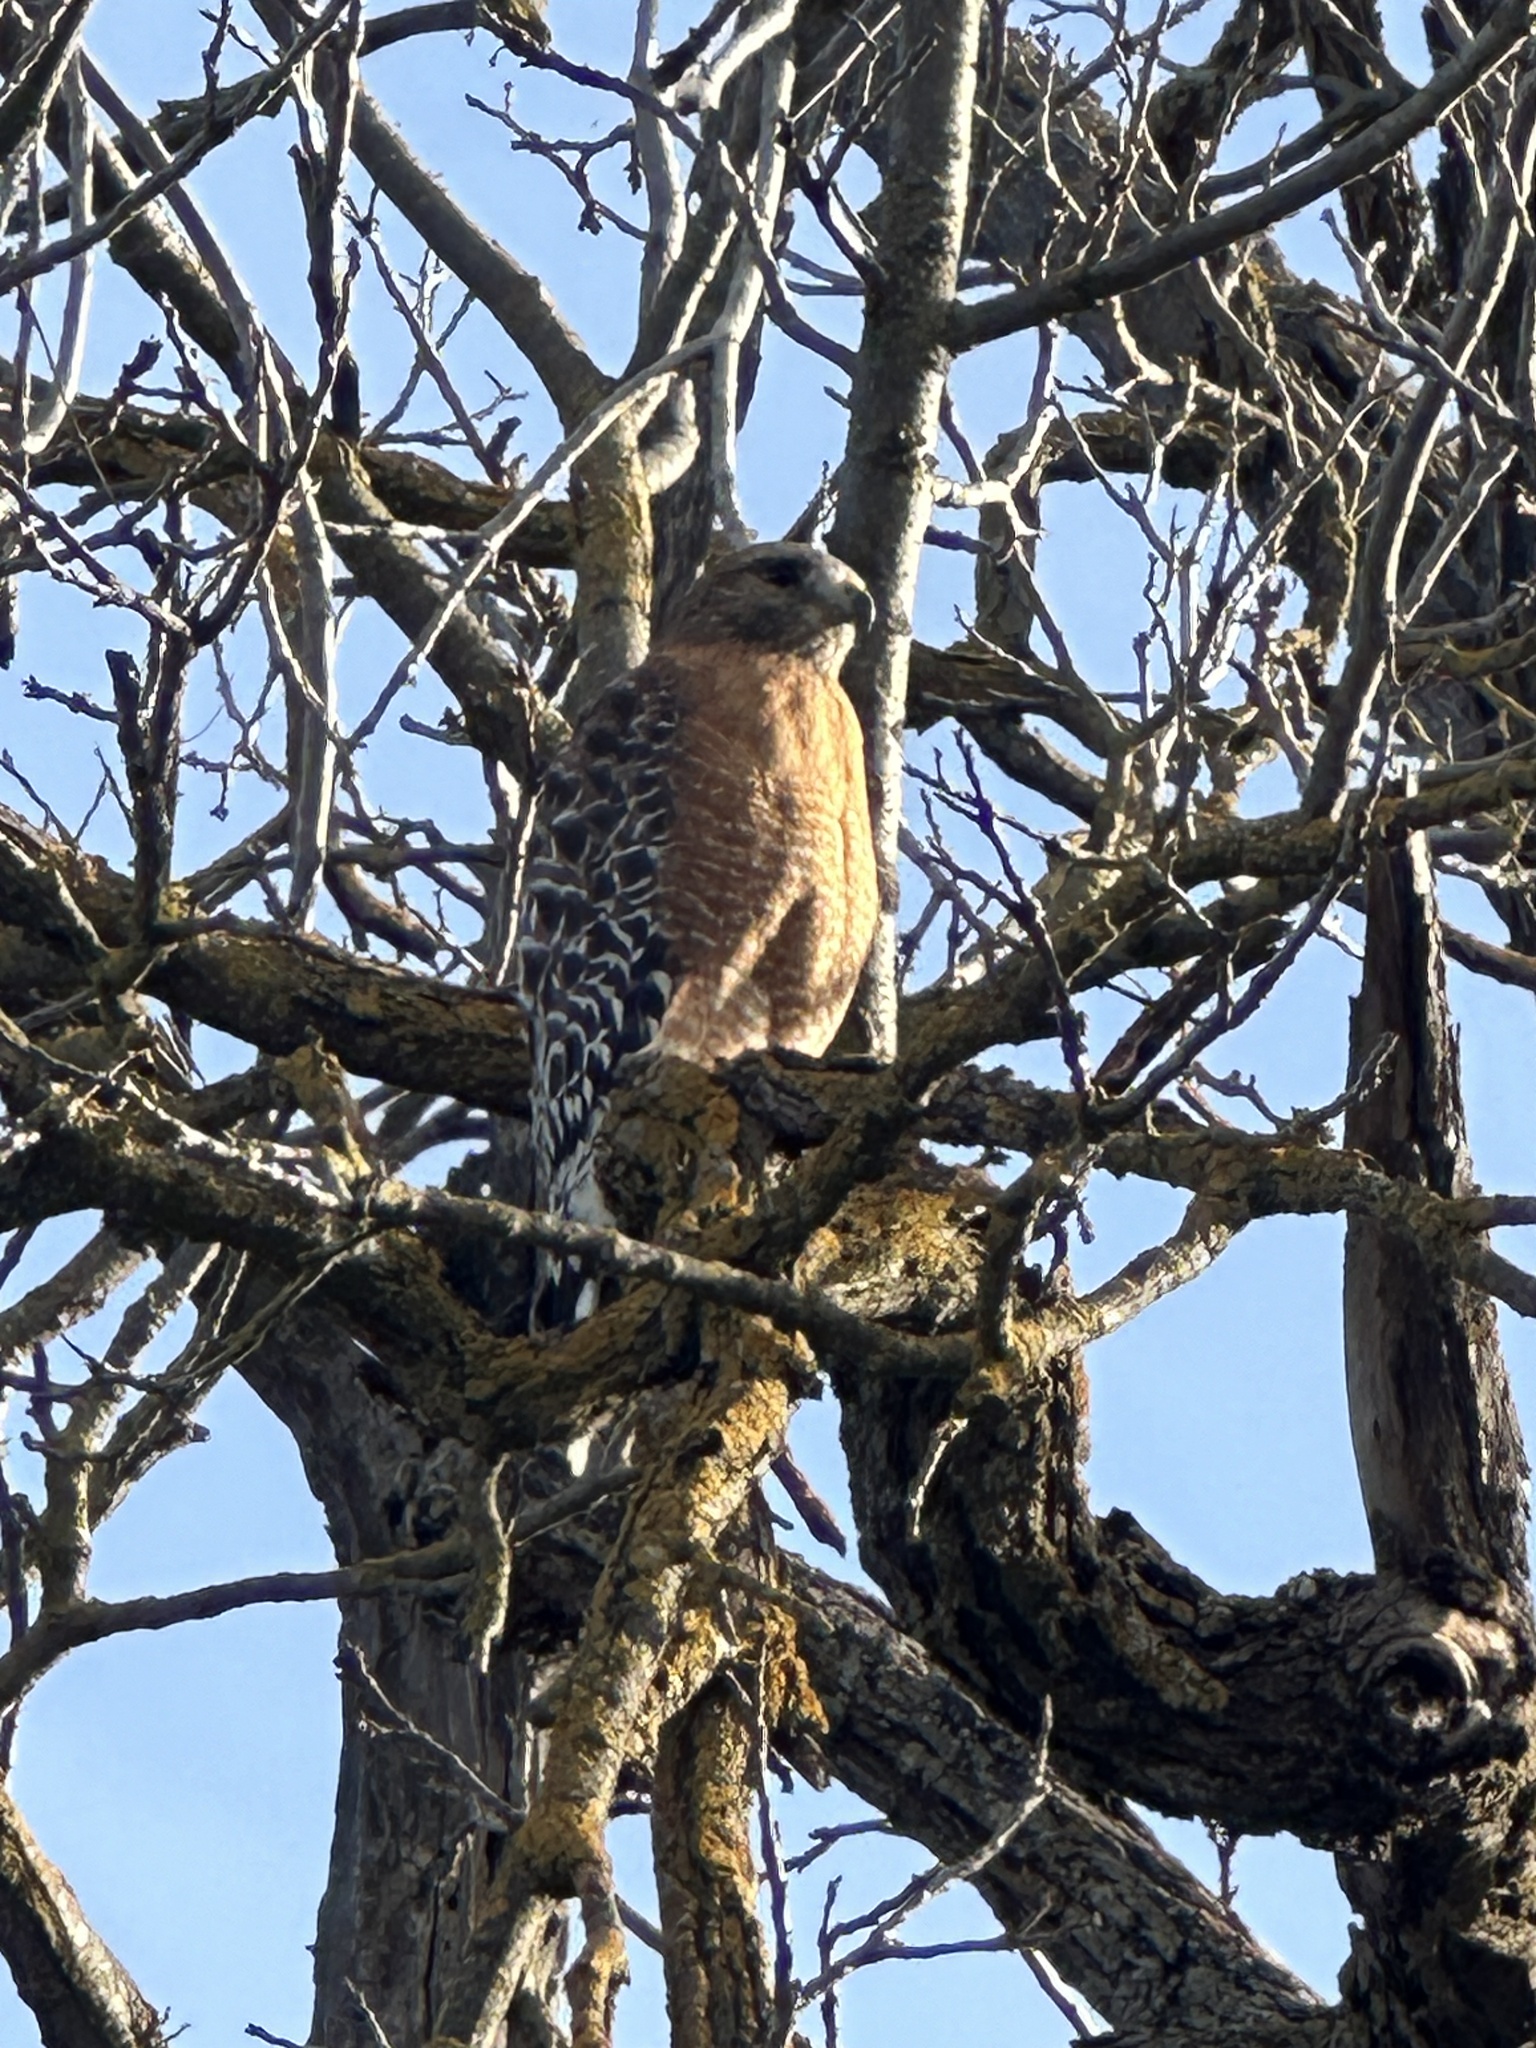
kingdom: Animalia
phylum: Chordata
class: Aves
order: Accipitriformes
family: Accipitridae
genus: Buteo
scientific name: Buteo lineatus
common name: Red-shouldered hawk
